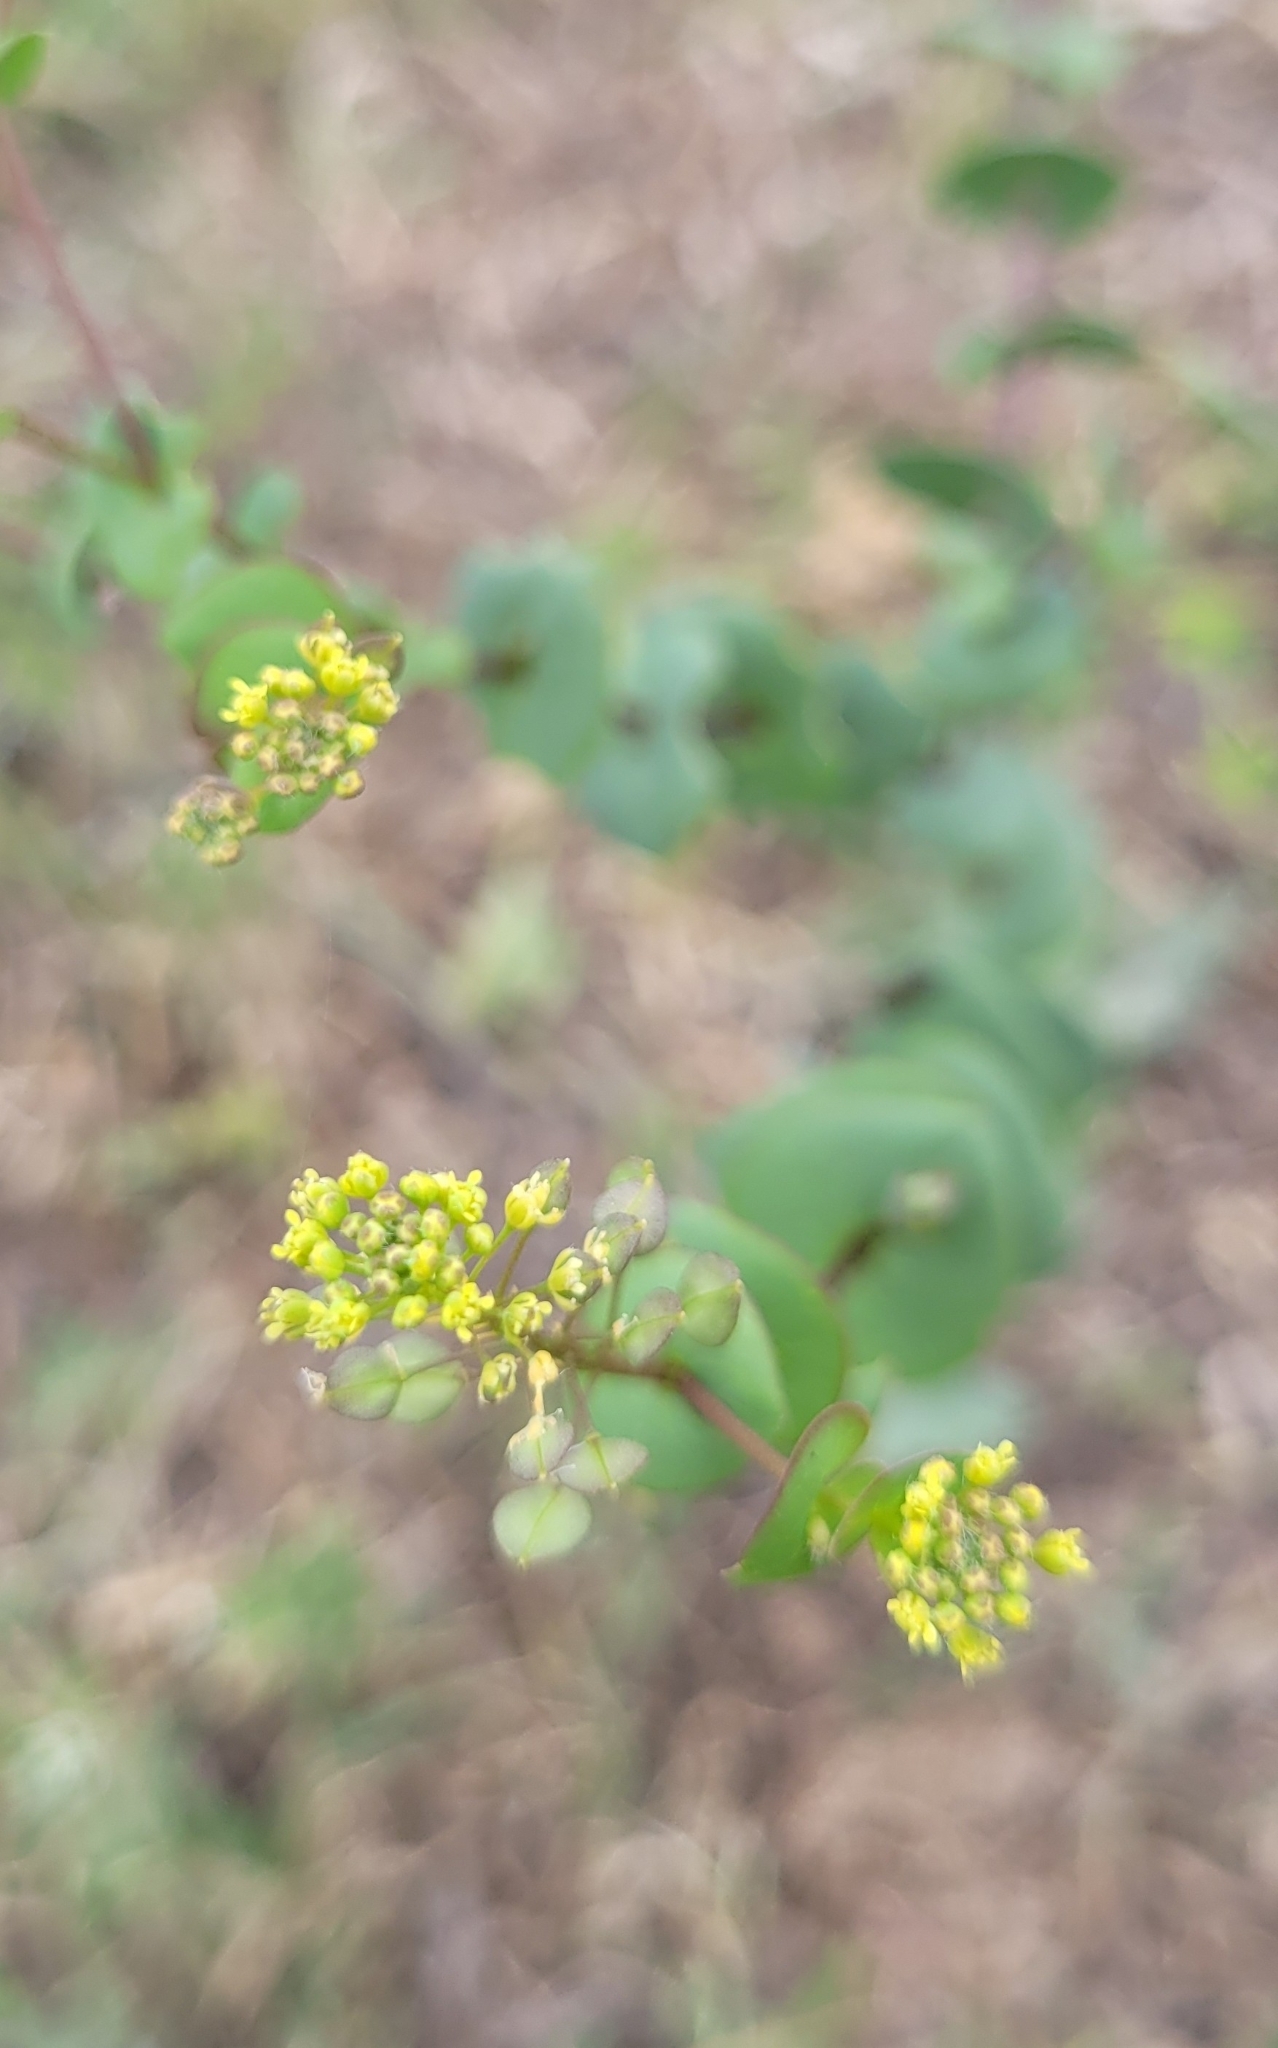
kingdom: Plantae
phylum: Tracheophyta
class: Magnoliopsida
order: Brassicales
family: Brassicaceae
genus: Lepidium
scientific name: Lepidium perfoliatum
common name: Perfoliate pepperwort
